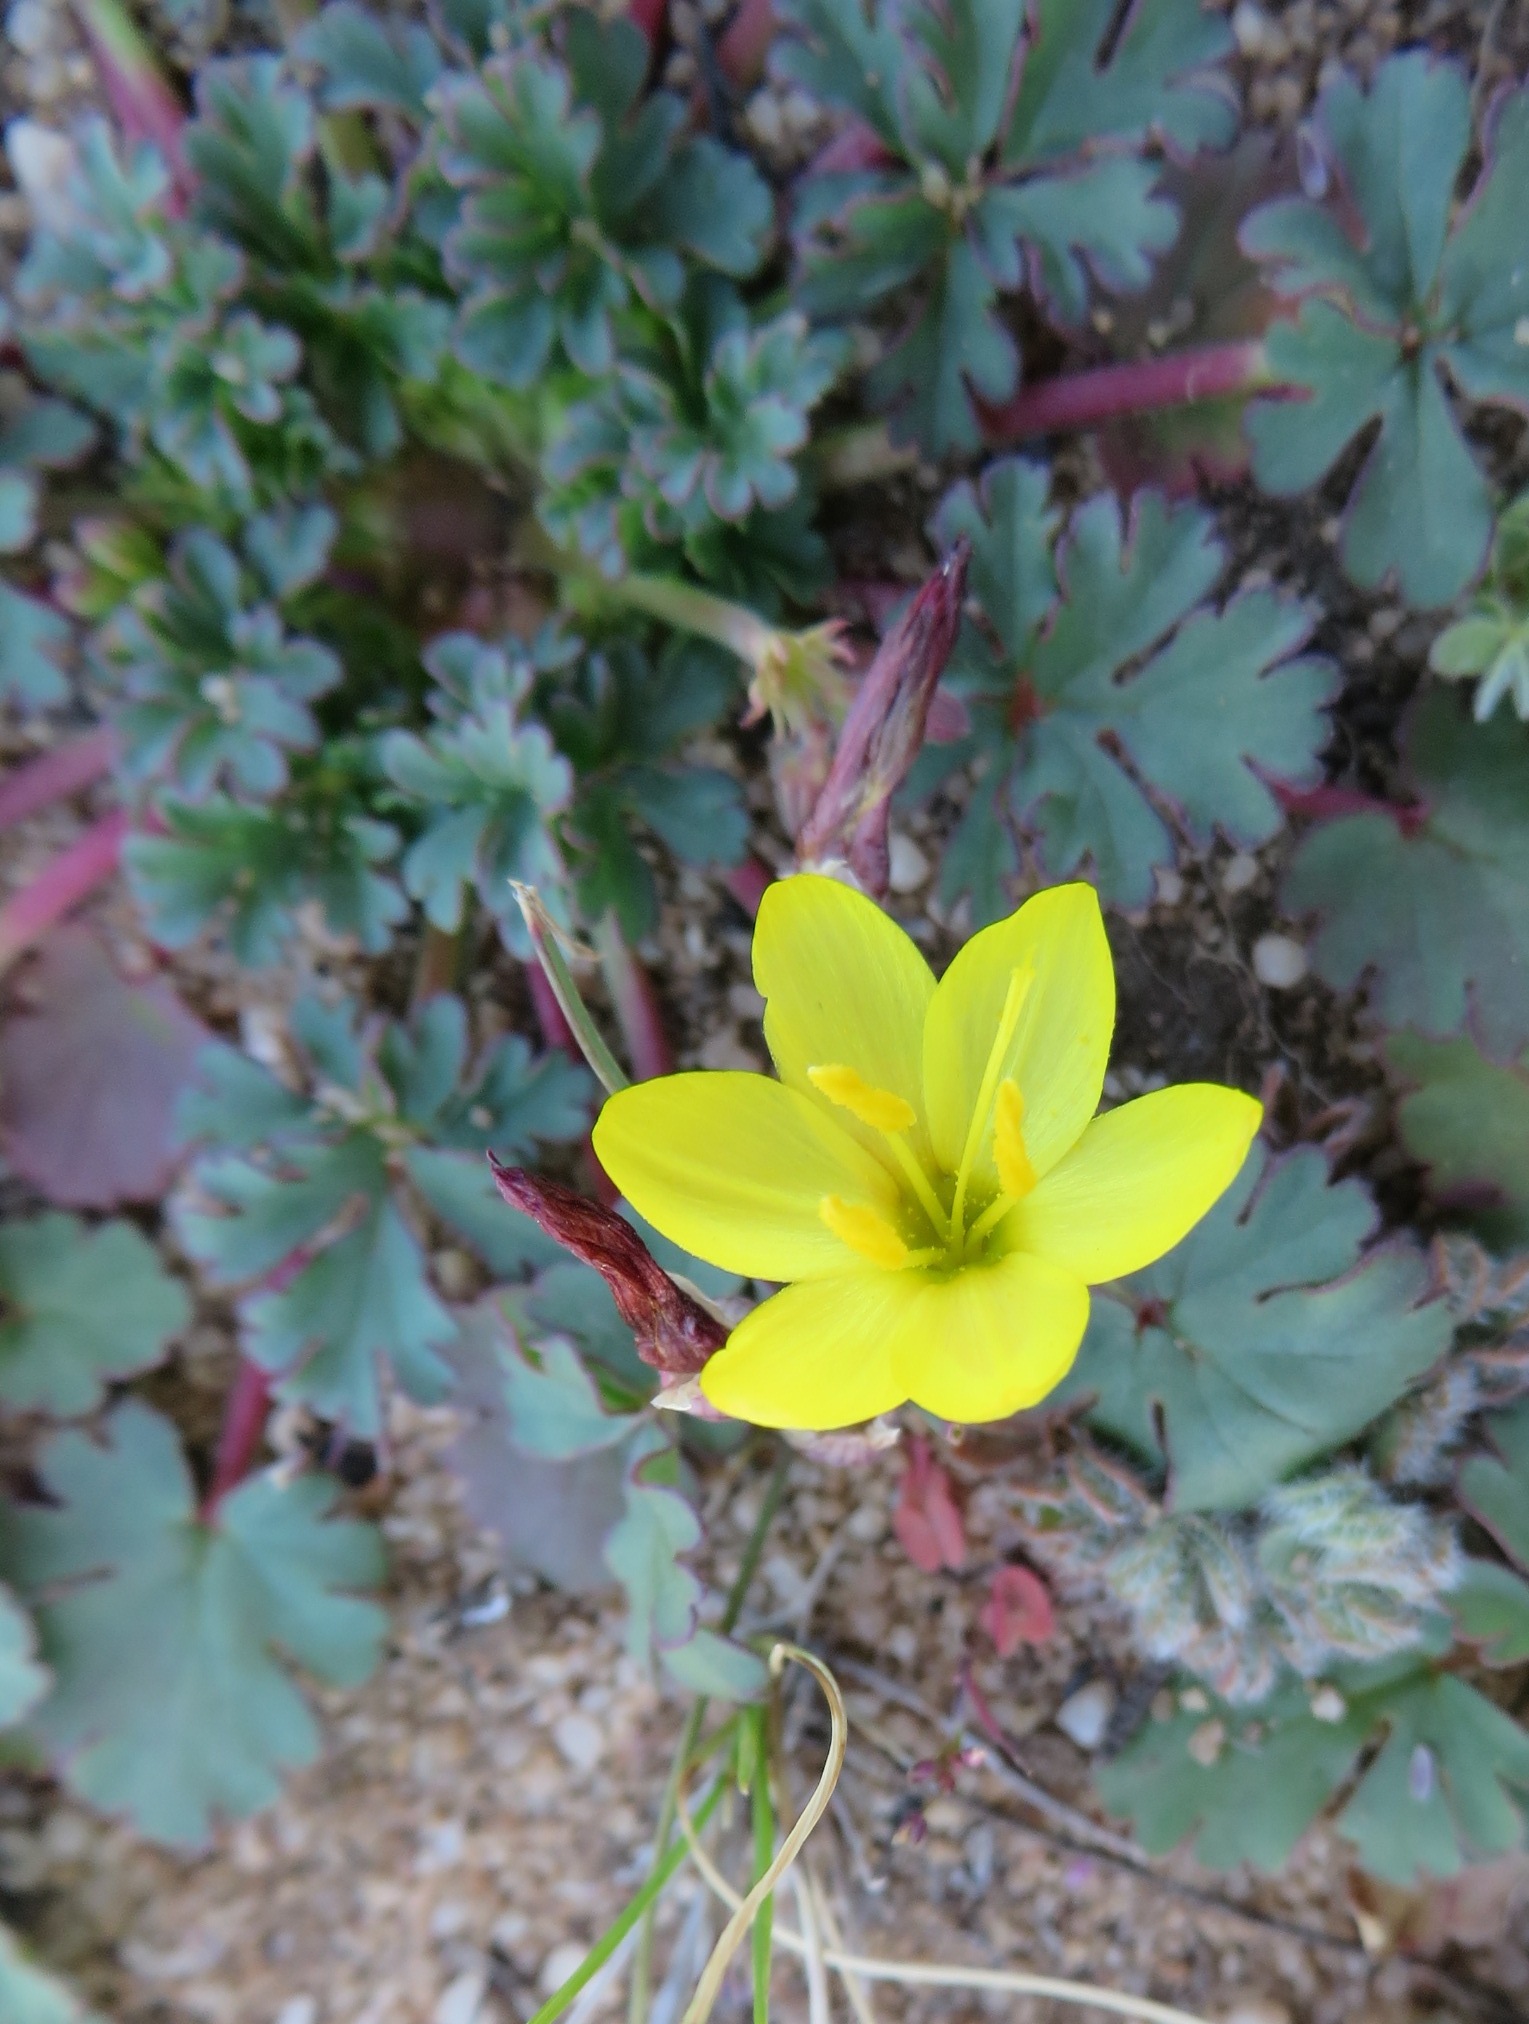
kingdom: Plantae
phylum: Tracheophyta
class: Liliopsida
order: Asparagales
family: Iridaceae
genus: Geissorhiza
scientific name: Geissorhiza ornithogaloides
